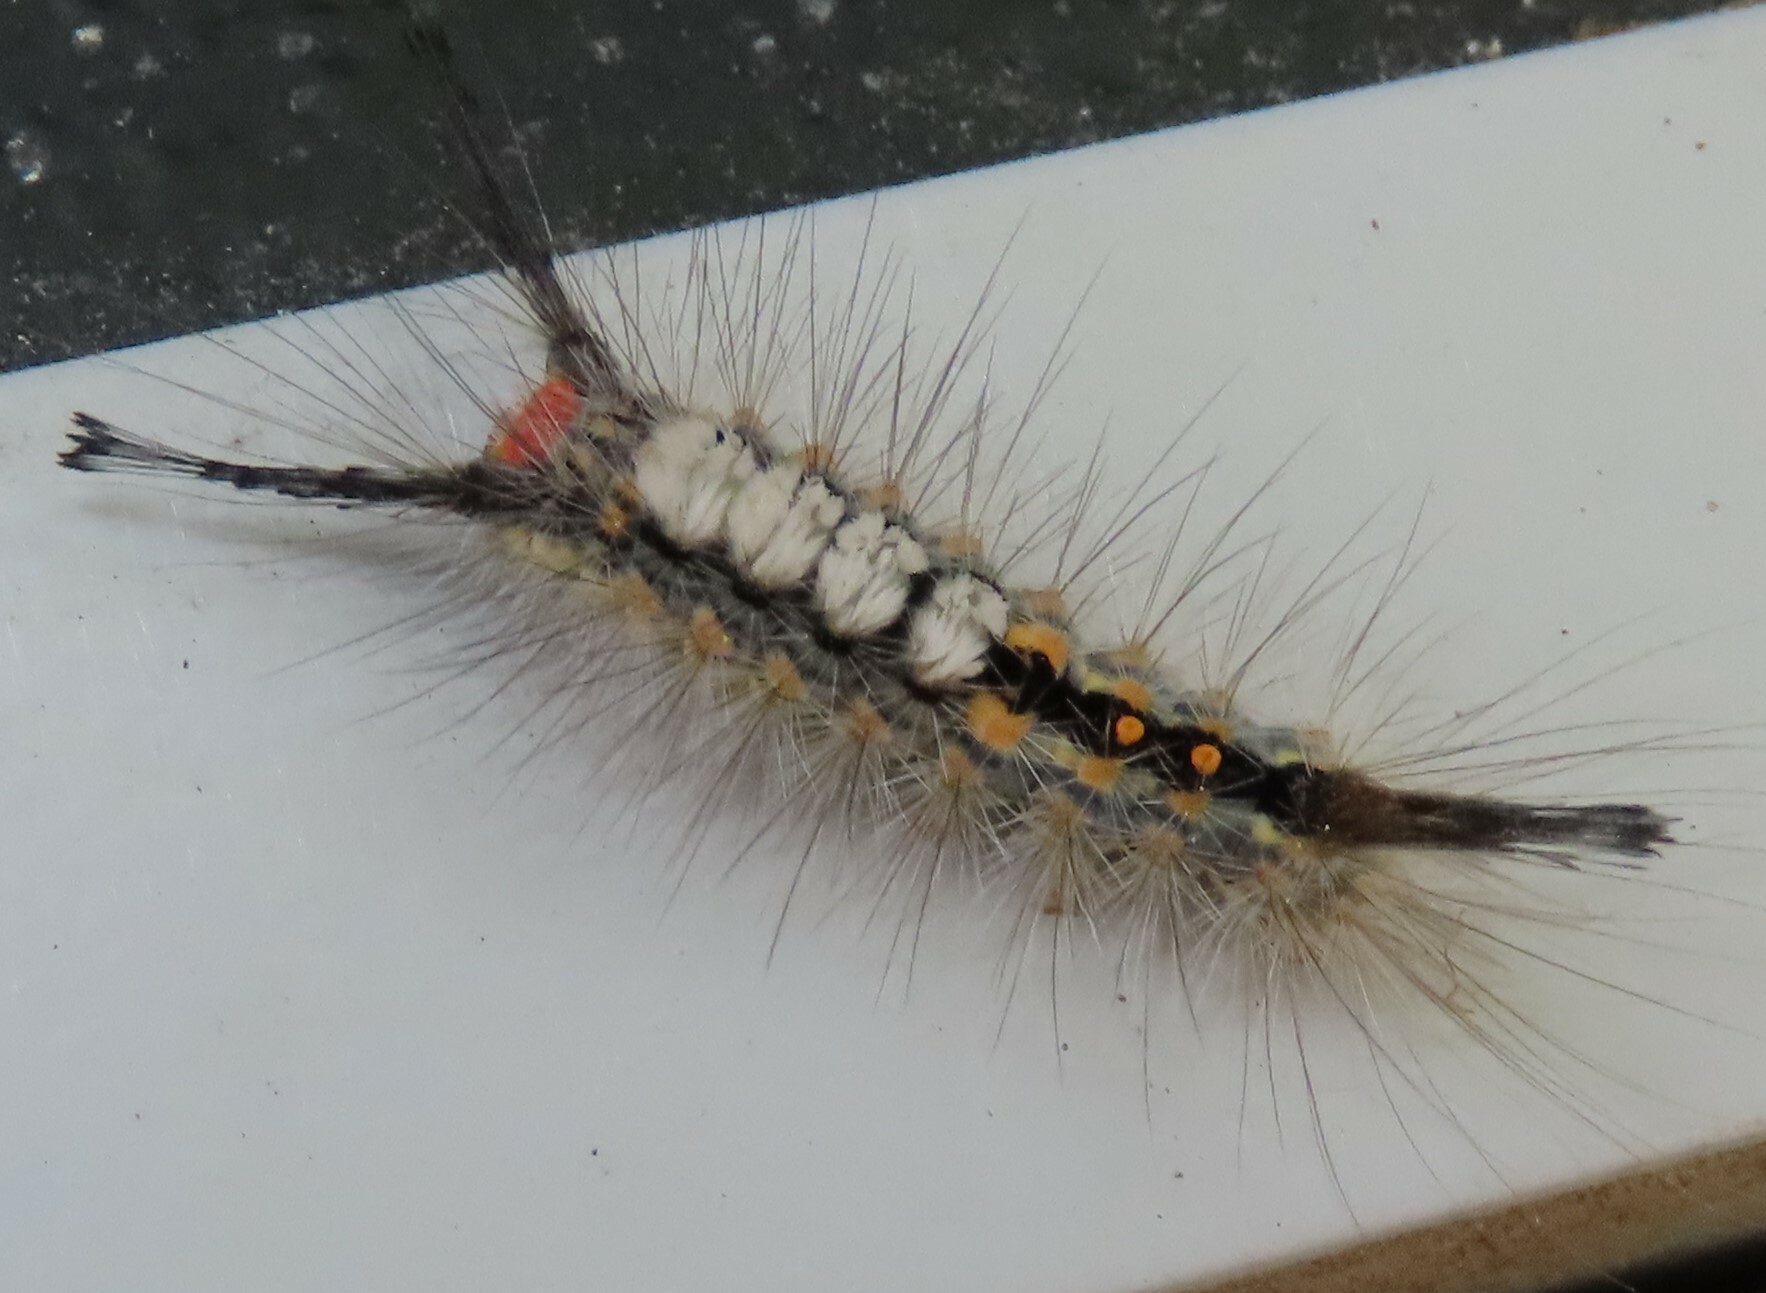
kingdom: Animalia
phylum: Arthropoda
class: Insecta
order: Lepidoptera
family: Erebidae
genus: Orgyia
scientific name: Orgyia detrita
